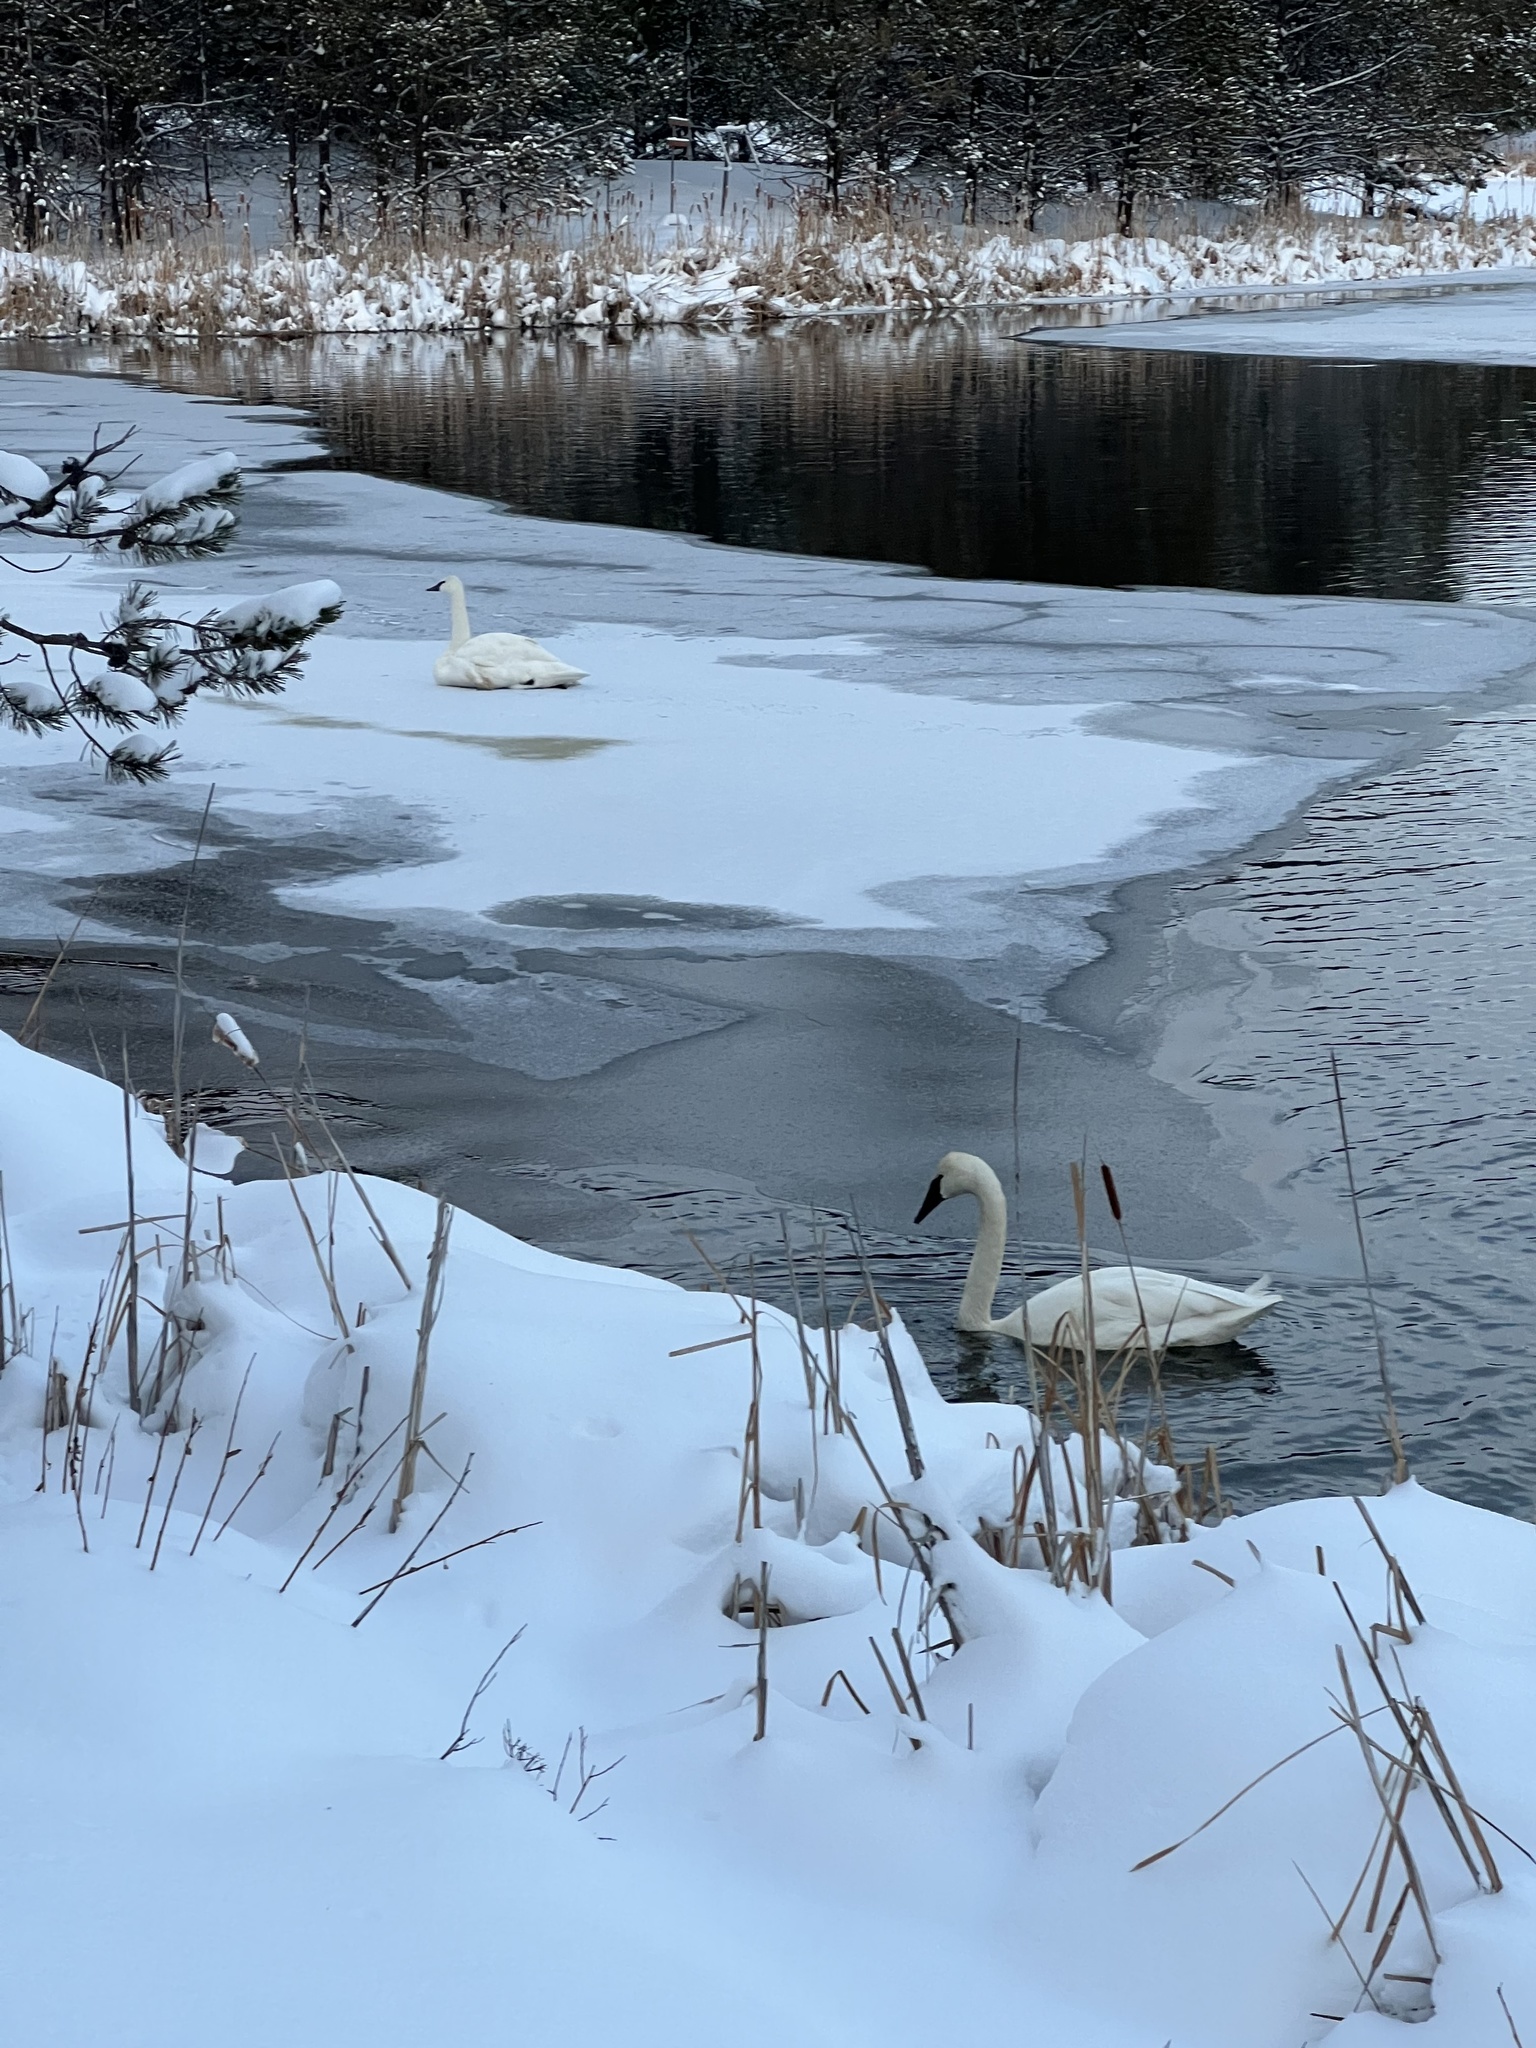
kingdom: Animalia
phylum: Chordata
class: Aves
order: Anseriformes
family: Anatidae
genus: Cygnus
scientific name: Cygnus buccinator
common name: Trumpeter swan
